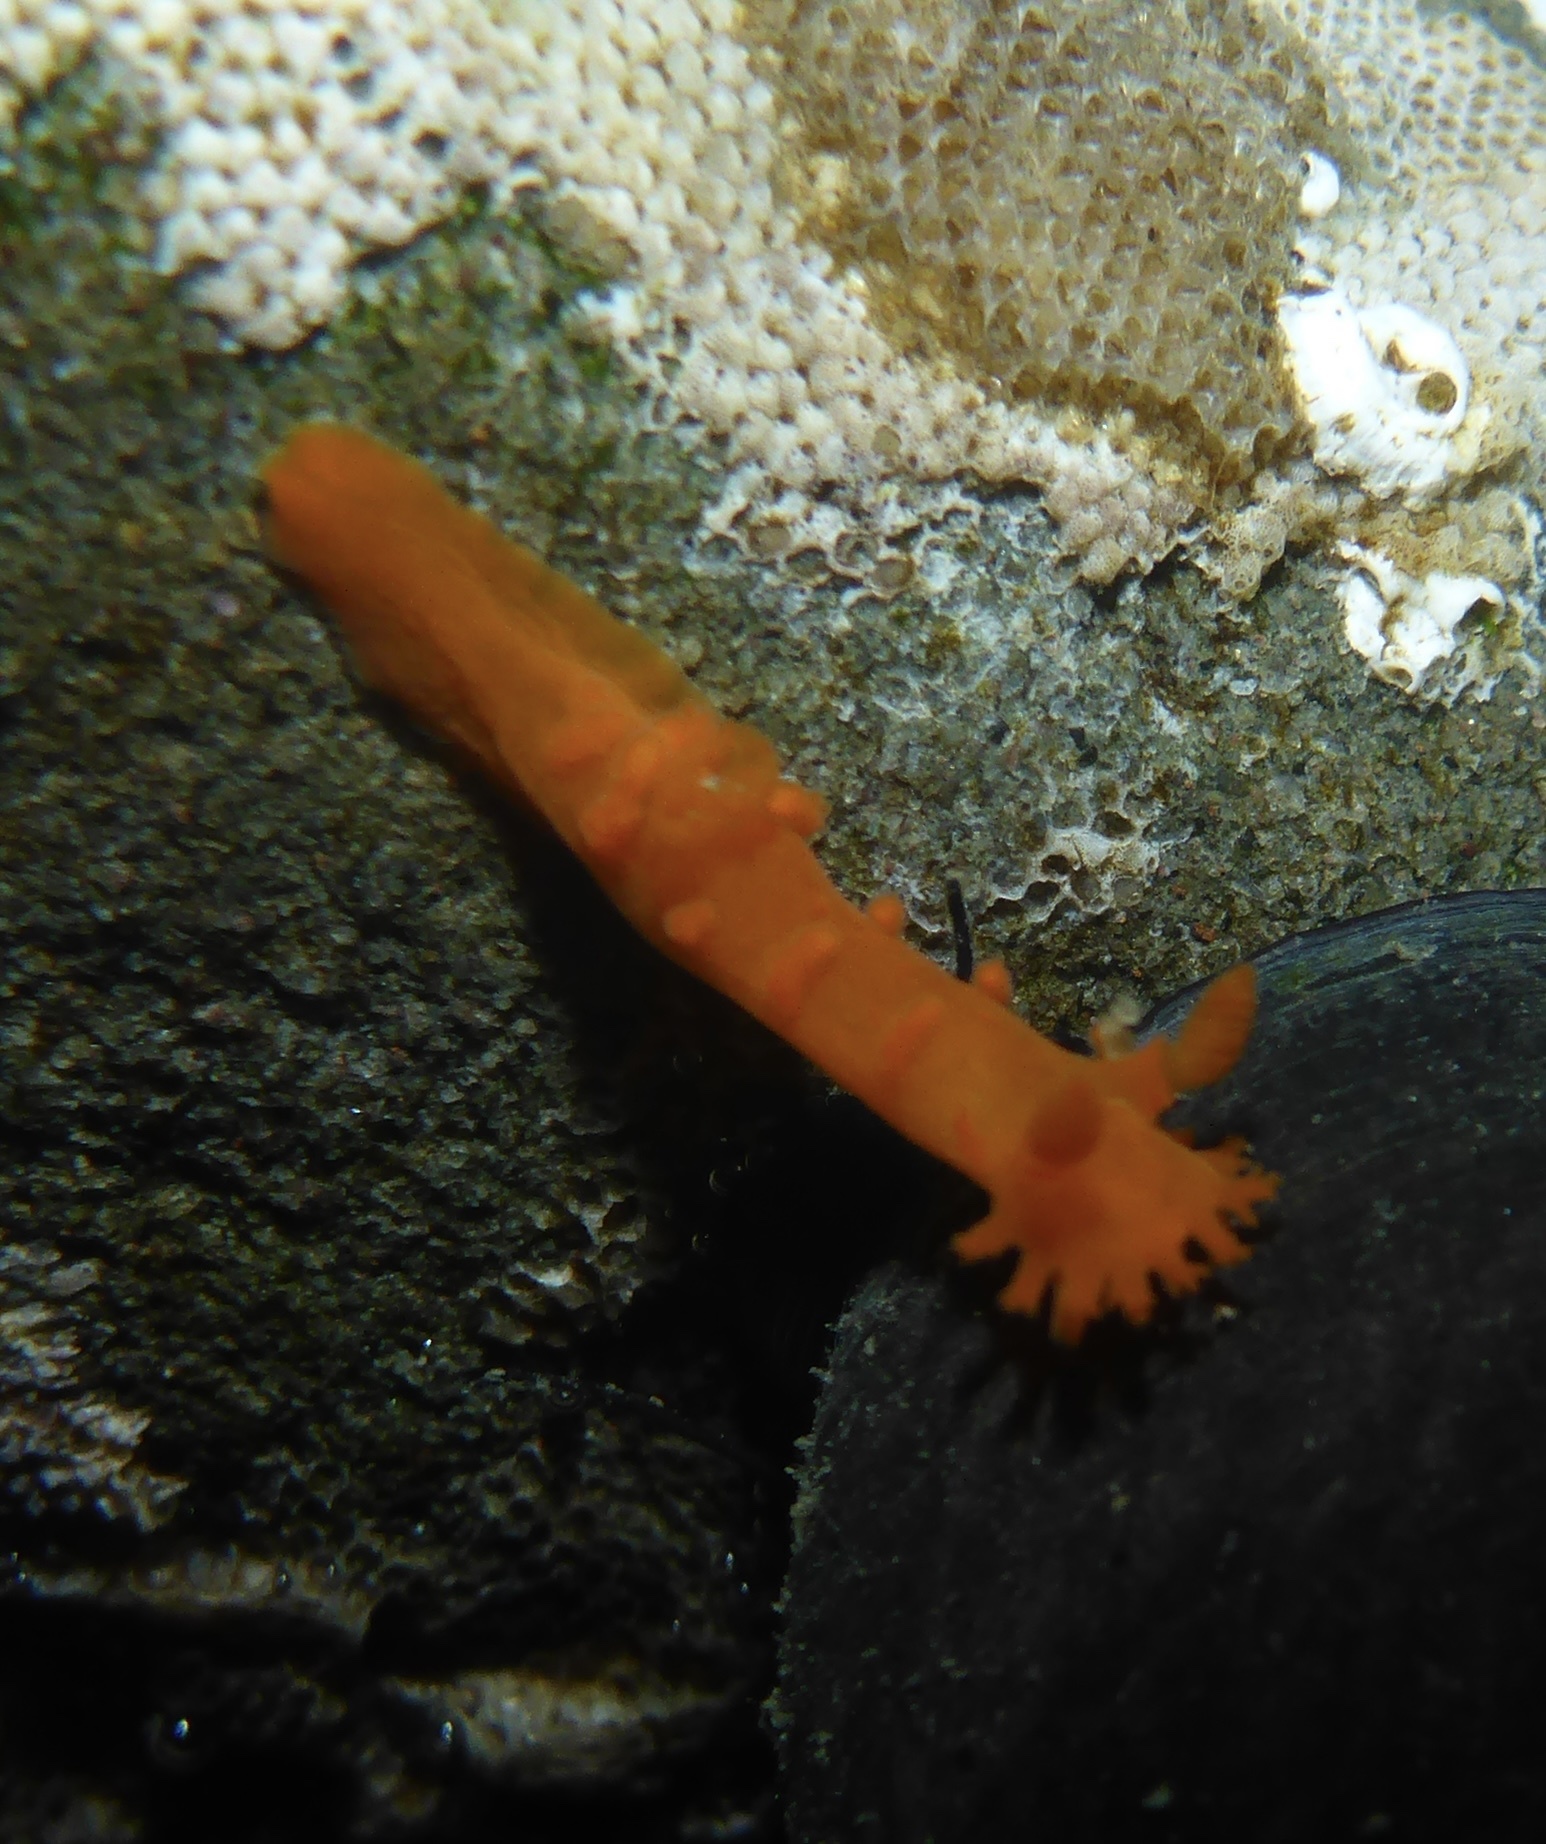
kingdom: Animalia
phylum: Mollusca
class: Gastropoda
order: Nudibranchia
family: Polyceridae
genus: Triopha
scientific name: Triopha maculata
